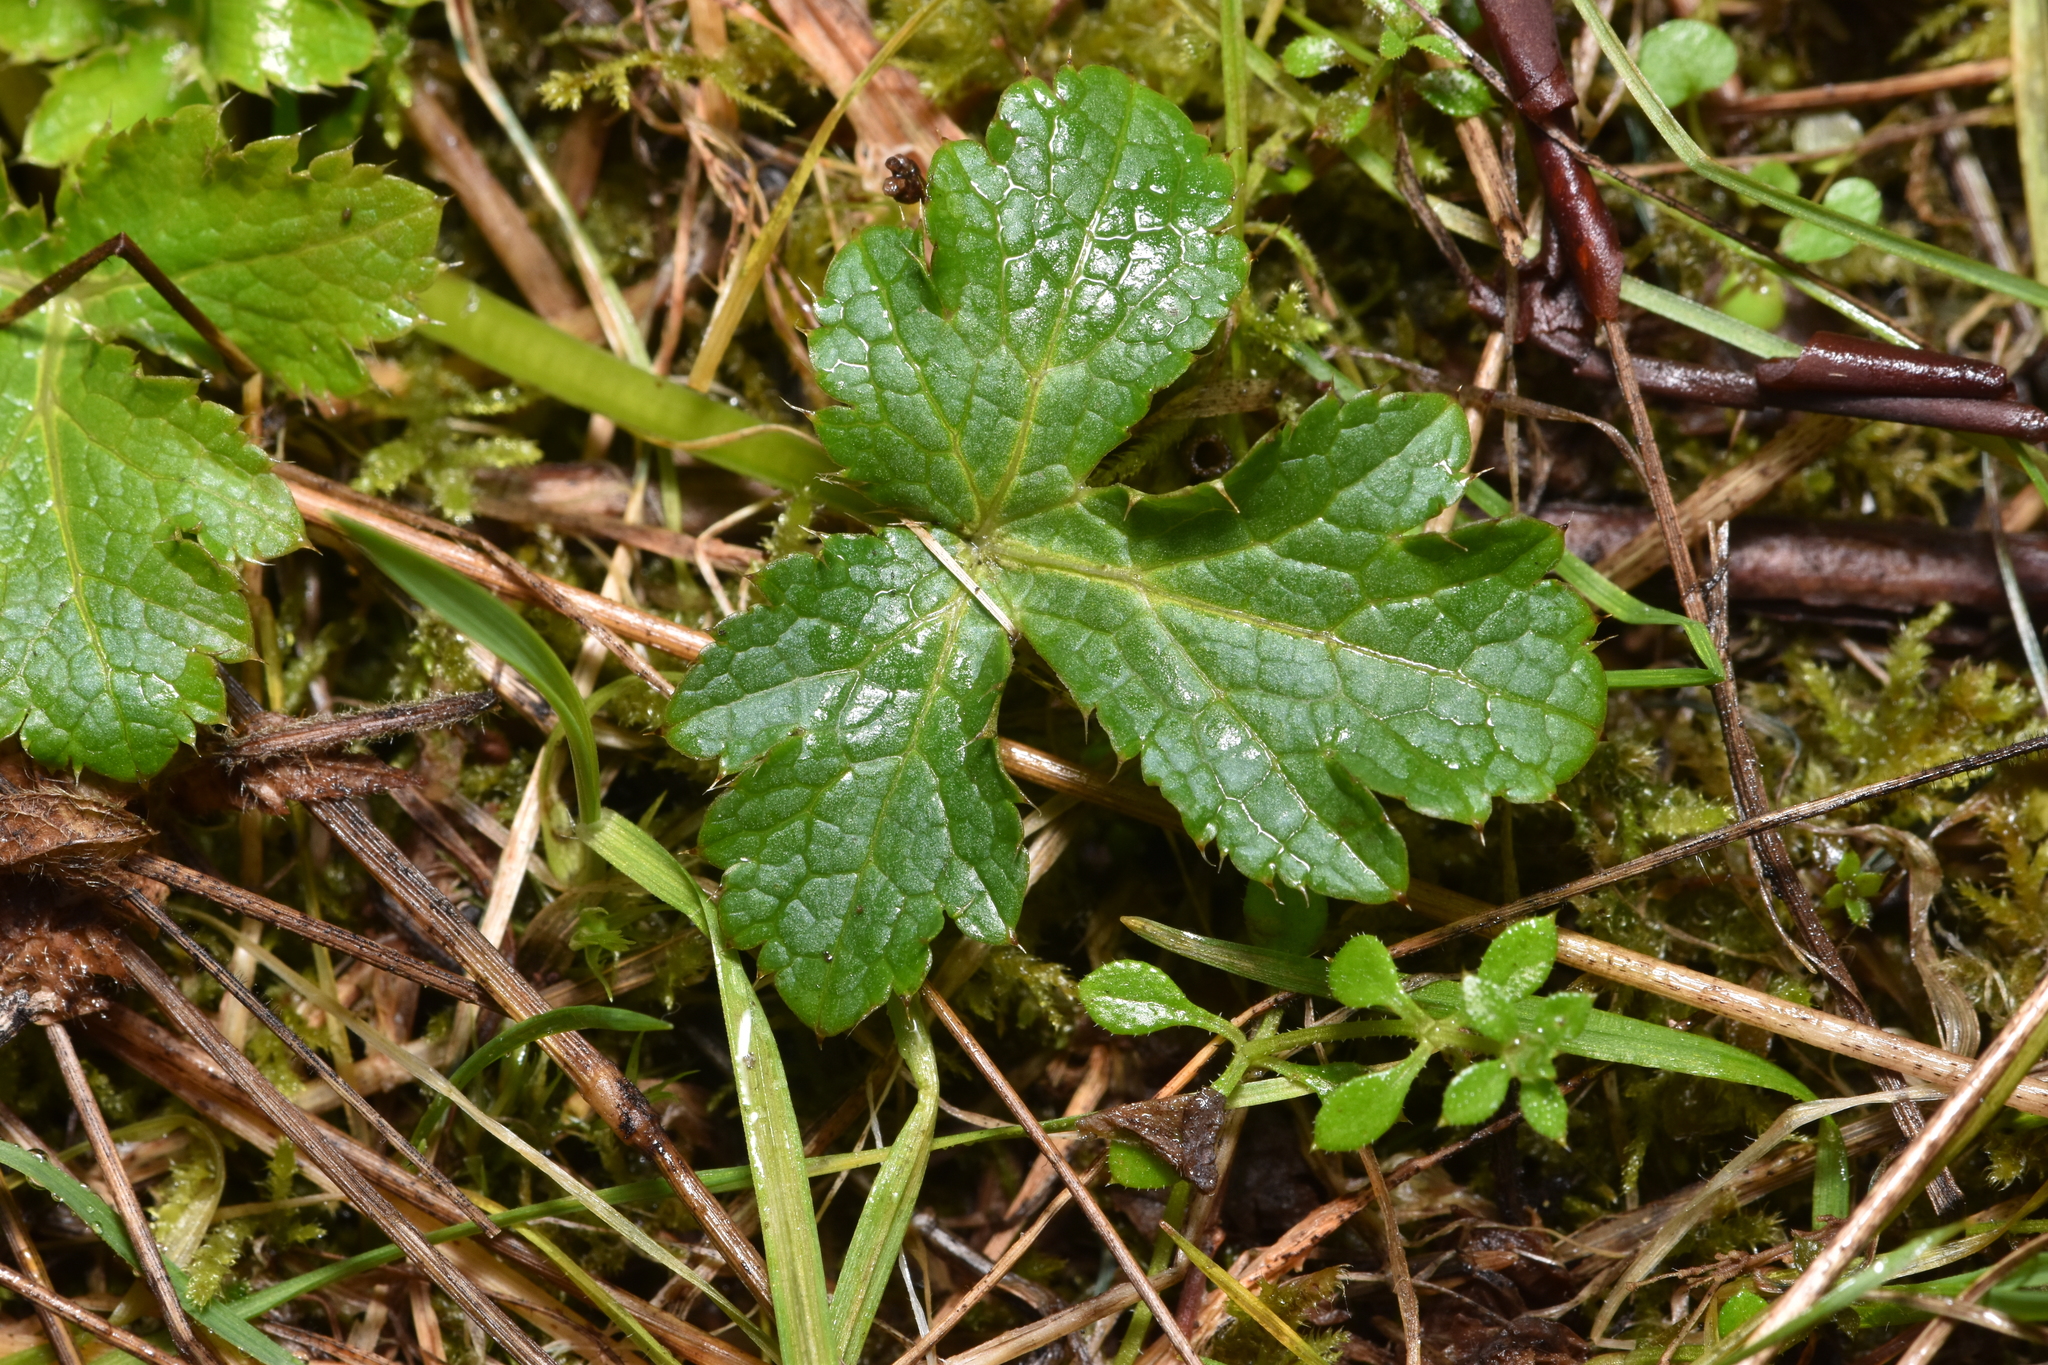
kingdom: Plantae
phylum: Tracheophyta
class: Magnoliopsida
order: Apiales
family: Apiaceae
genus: Sanicula
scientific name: Sanicula crassicaulis
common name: Western snakeroot
